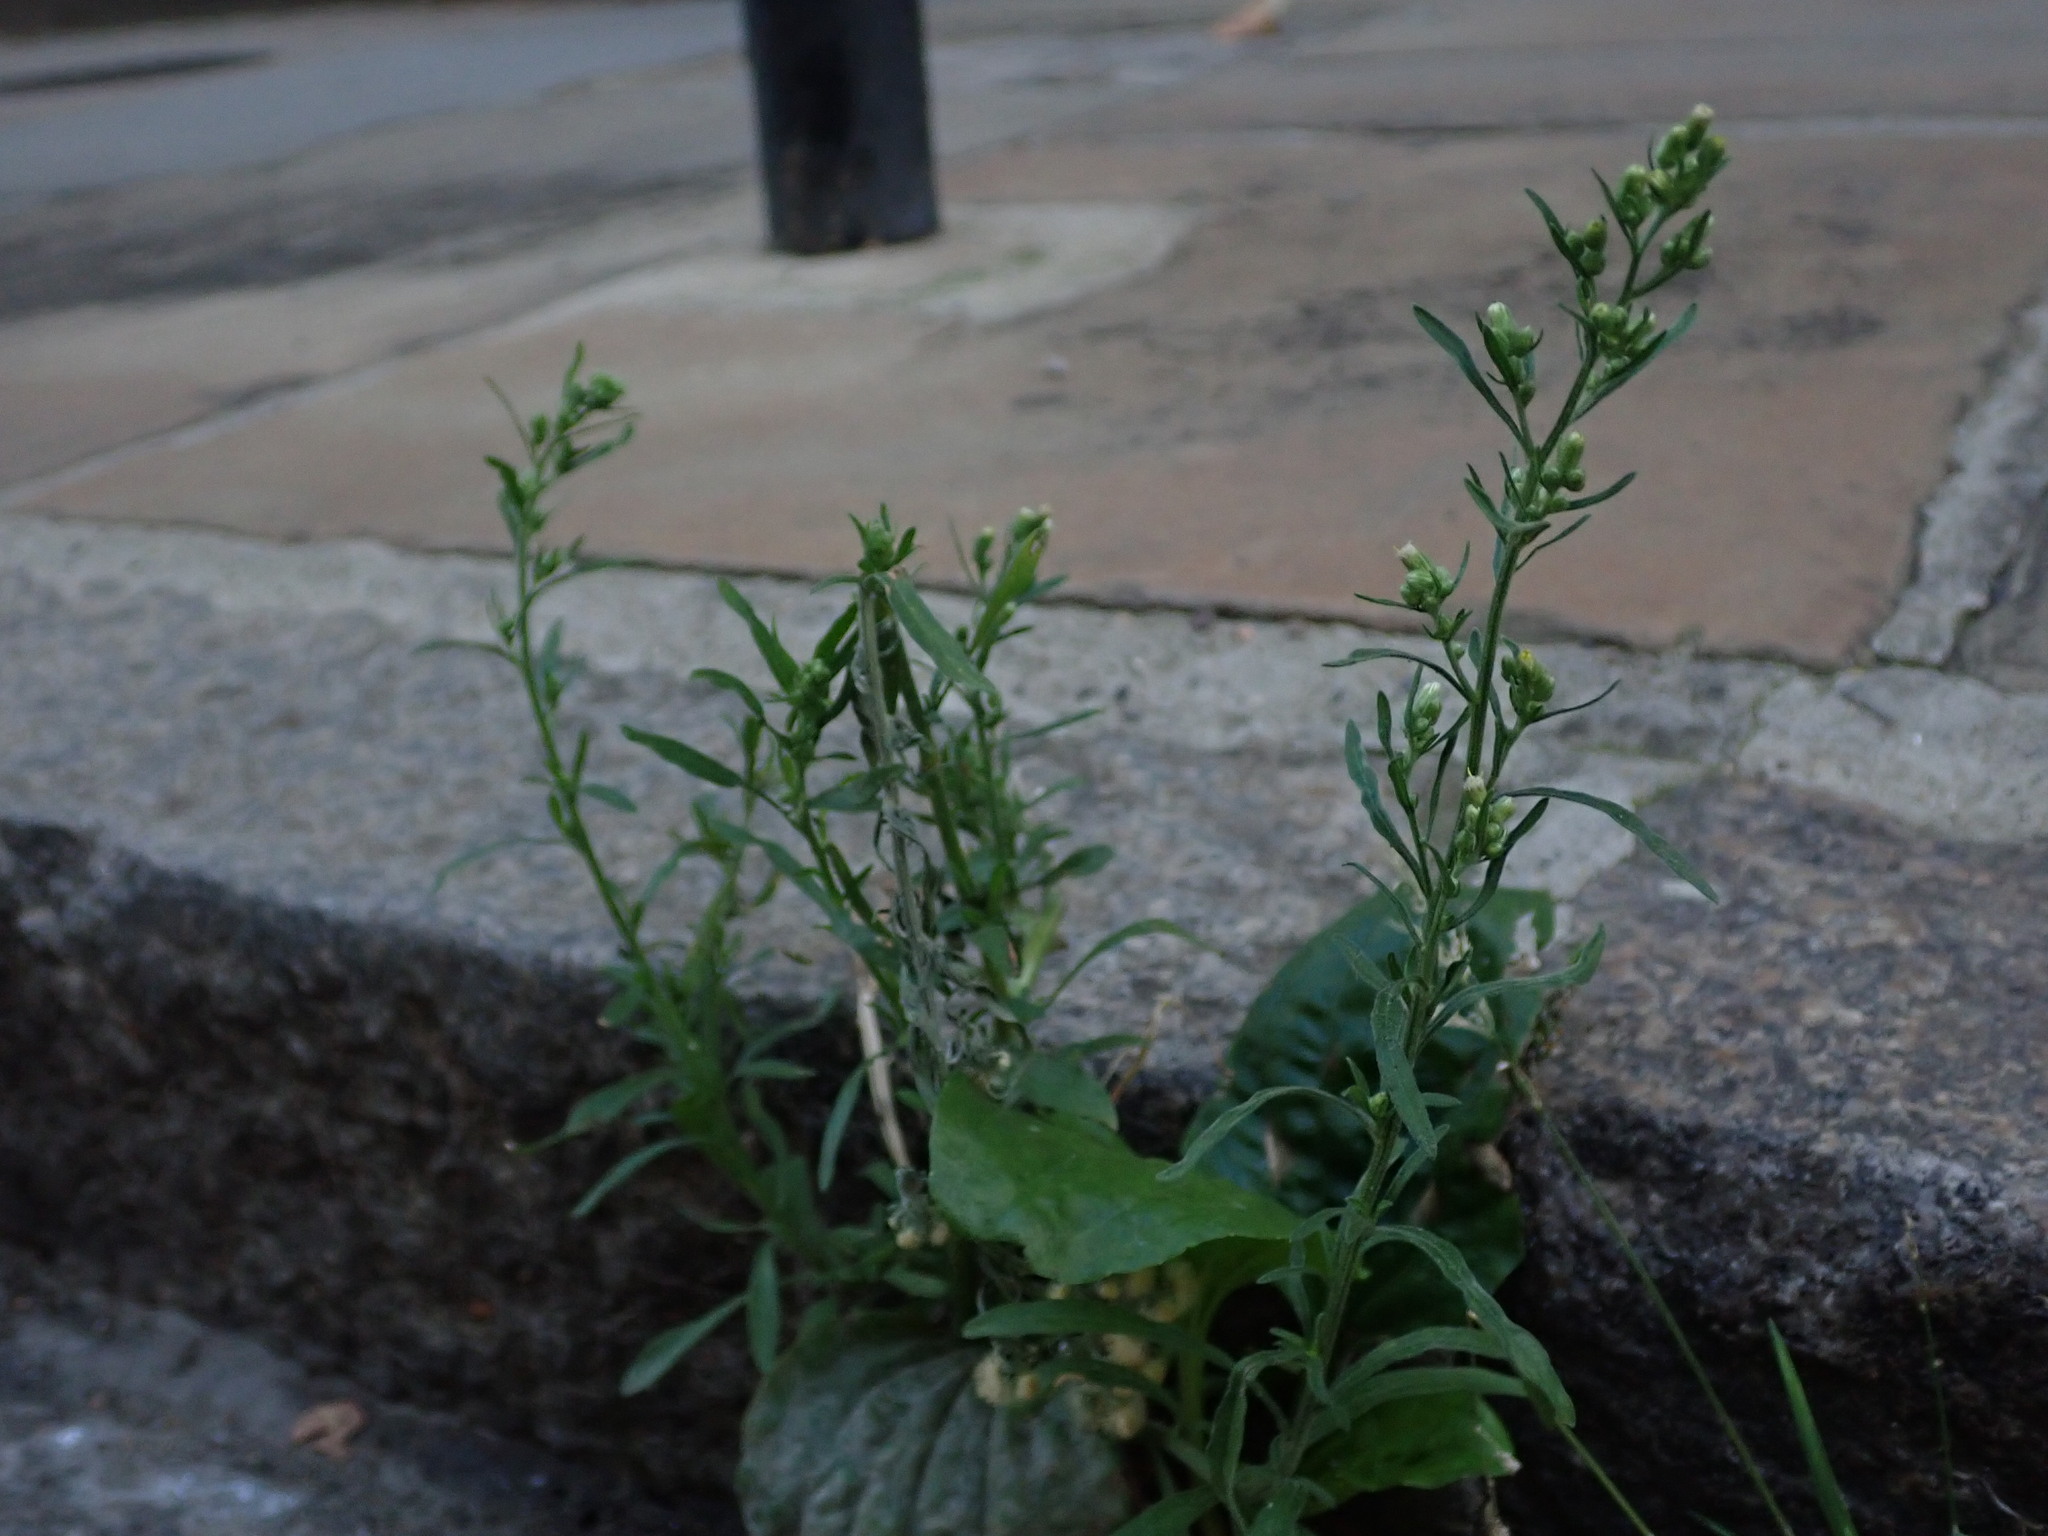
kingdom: Plantae
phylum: Tracheophyta
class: Magnoliopsida
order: Asterales
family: Asteraceae
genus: Erigeron
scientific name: Erigeron sumatrensis
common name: Daisy
